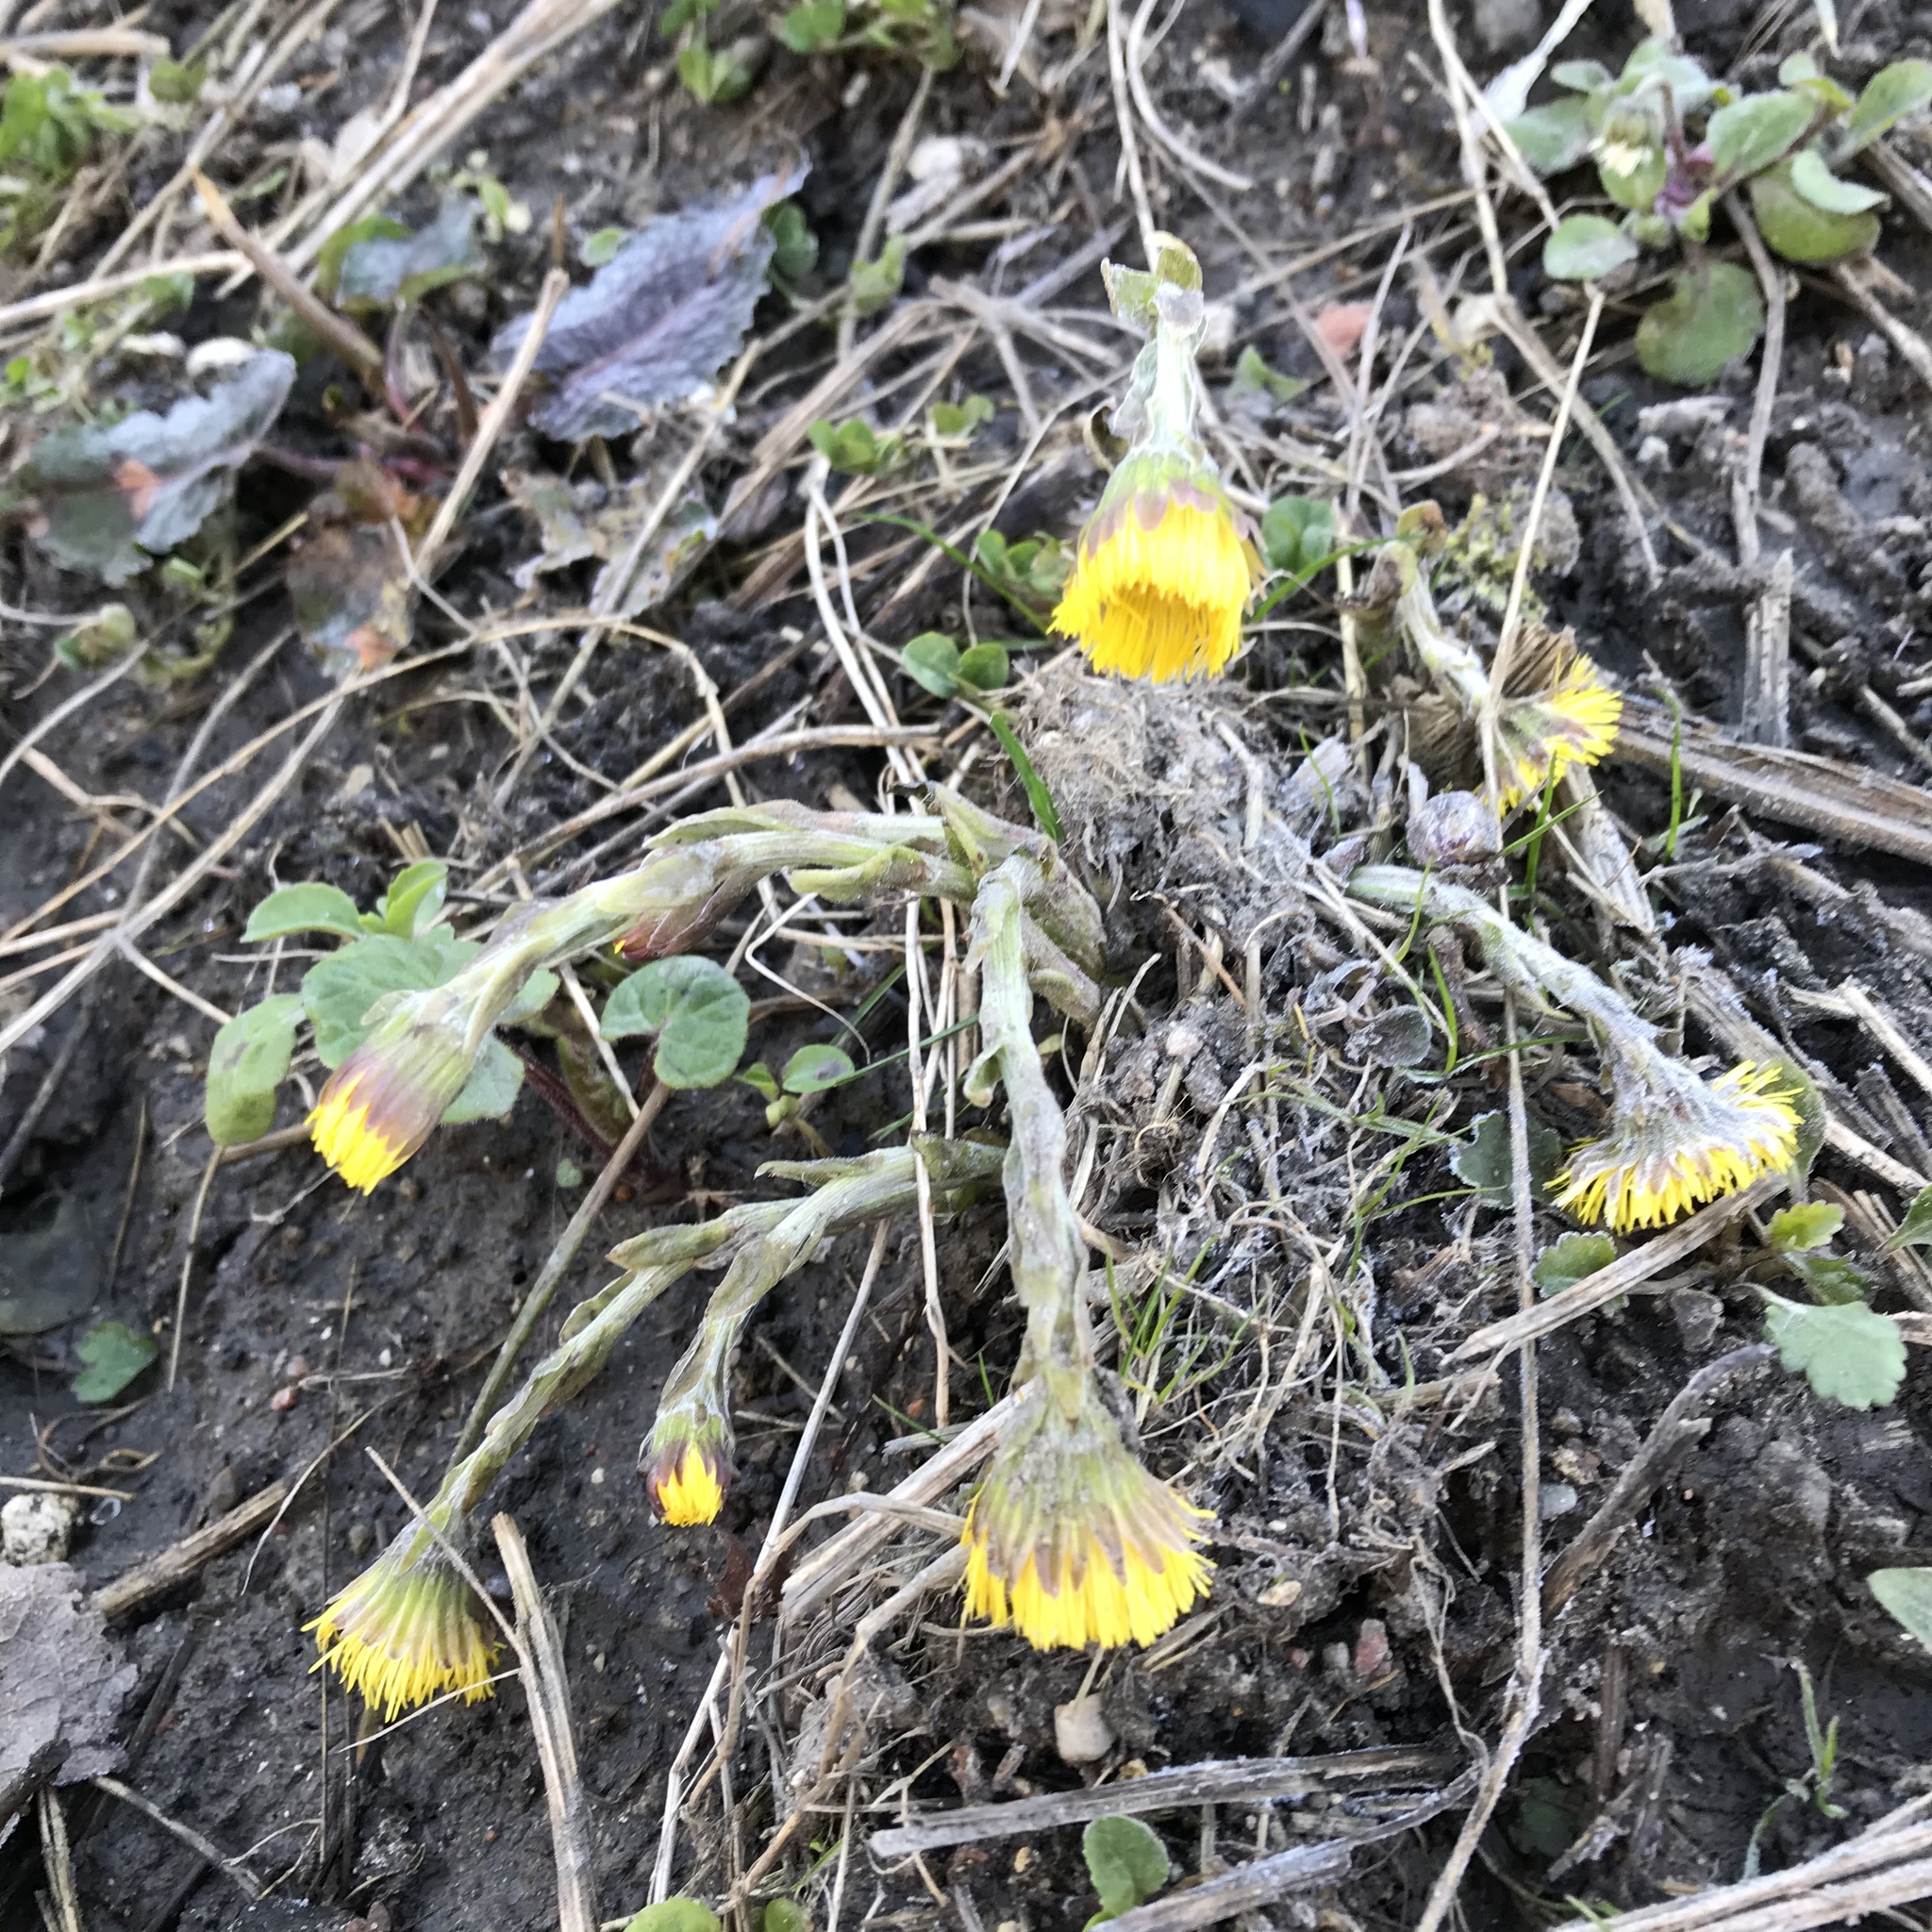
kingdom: Plantae
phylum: Tracheophyta
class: Magnoliopsida
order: Asterales
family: Asteraceae
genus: Tussilago
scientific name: Tussilago farfara
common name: Coltsfoot
